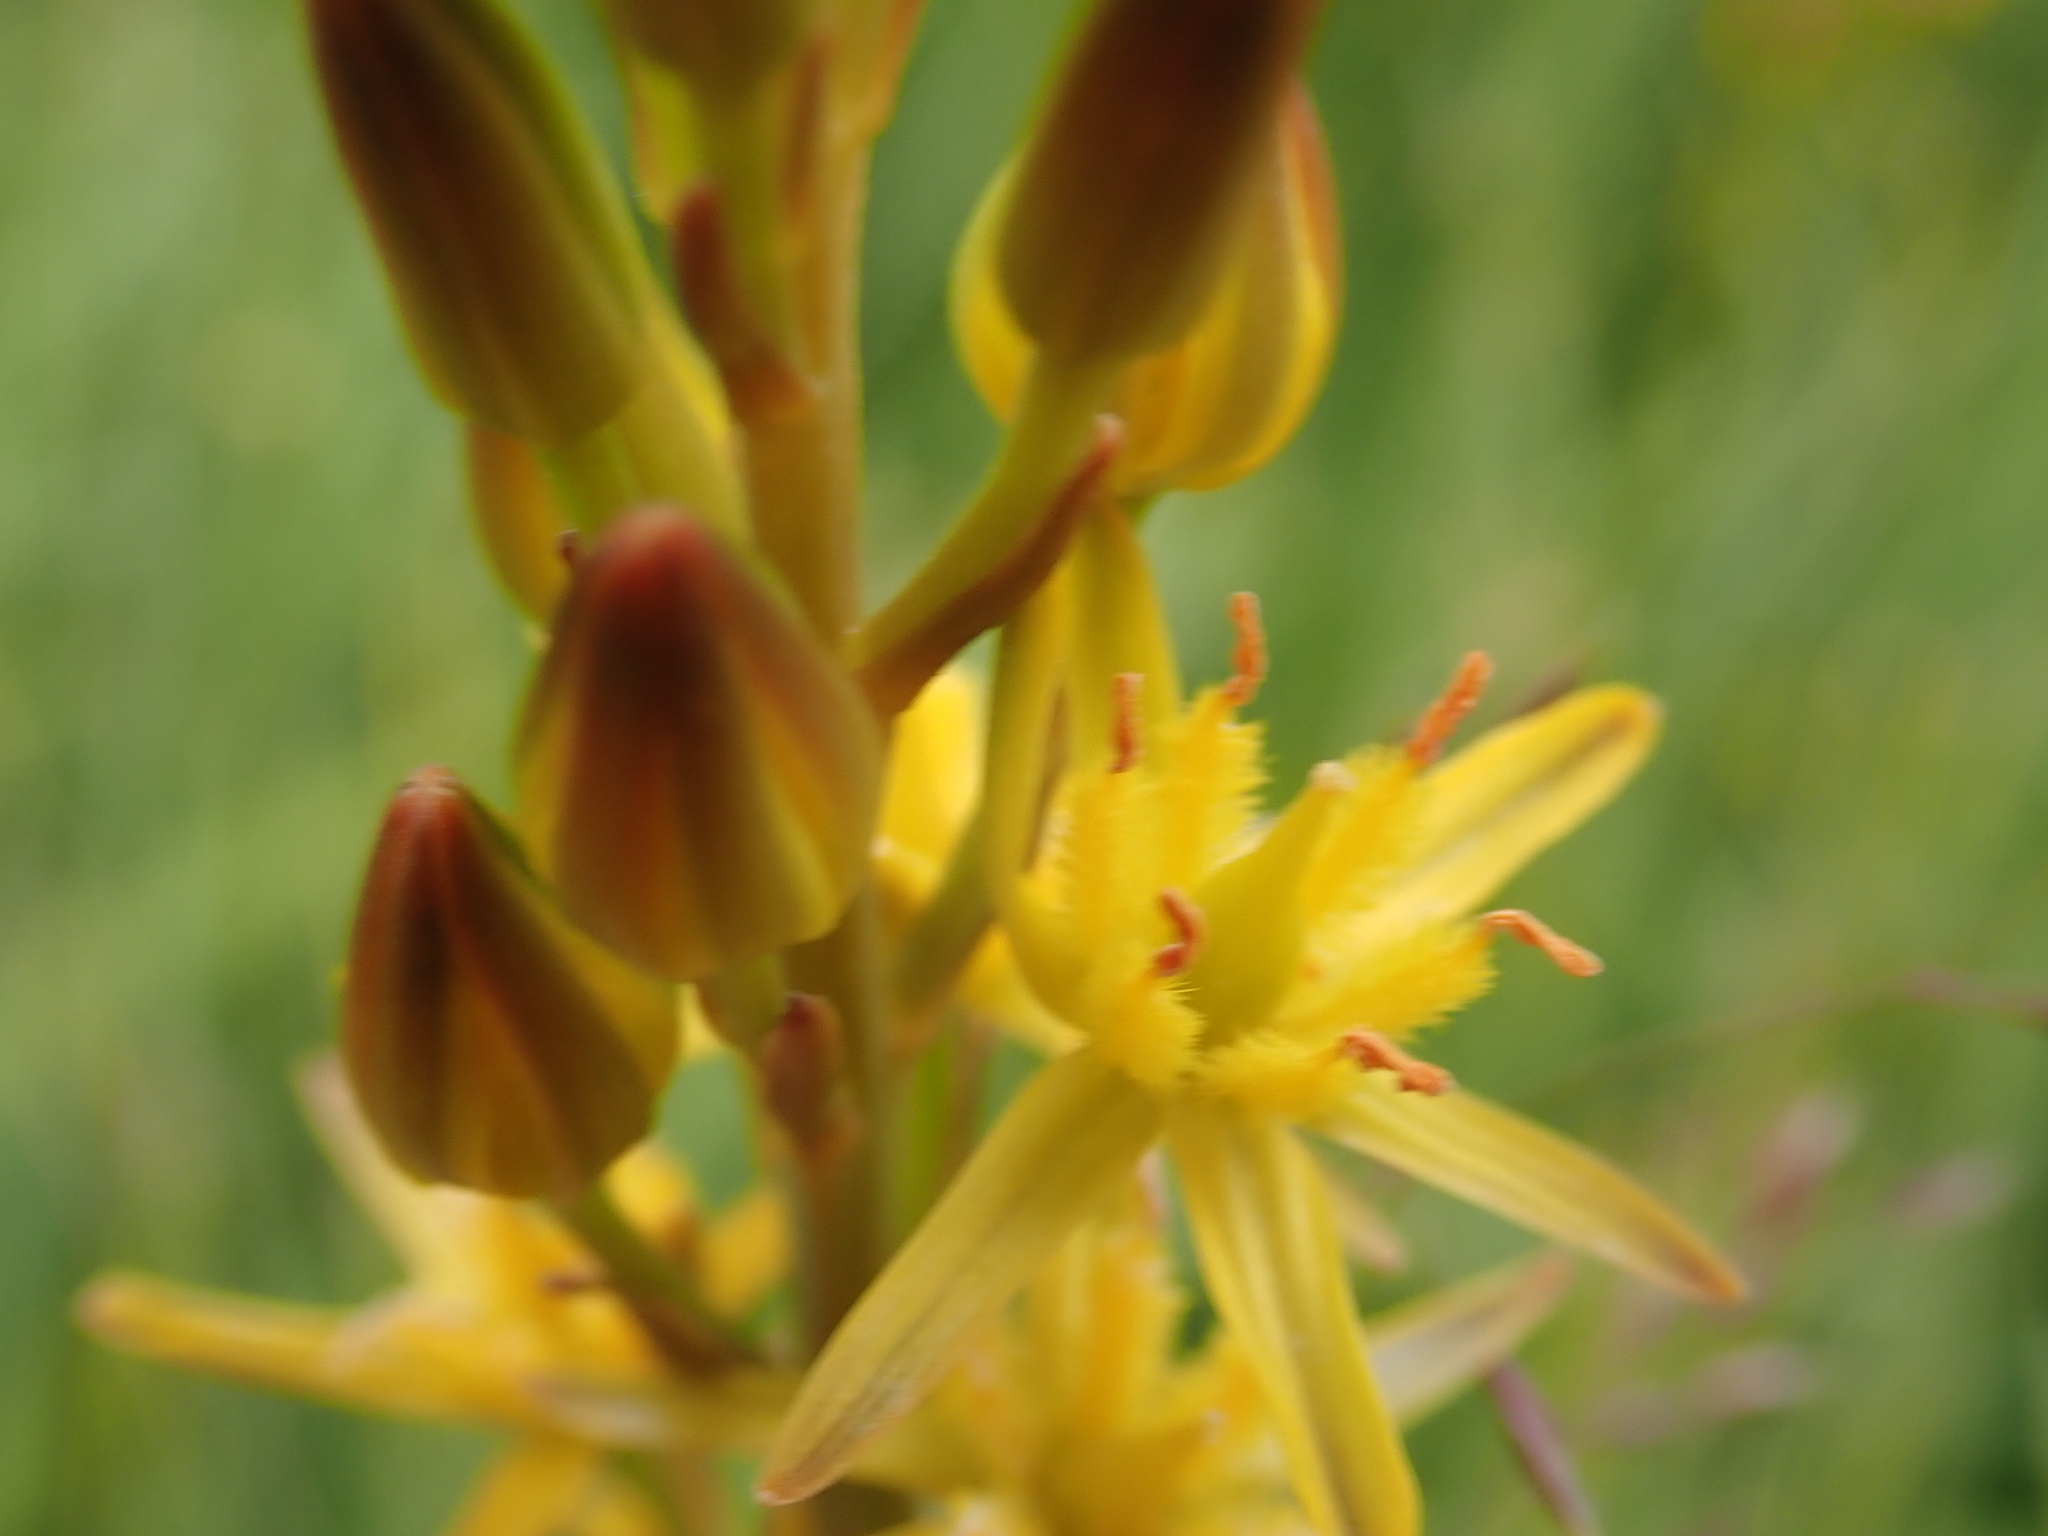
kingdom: Plantae
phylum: Tracheophyta
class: Liliopsida
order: Dioscoreales
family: Nartheciaceae
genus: Narthecium
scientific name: Narthecium ossifragum
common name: Bog asphodel
